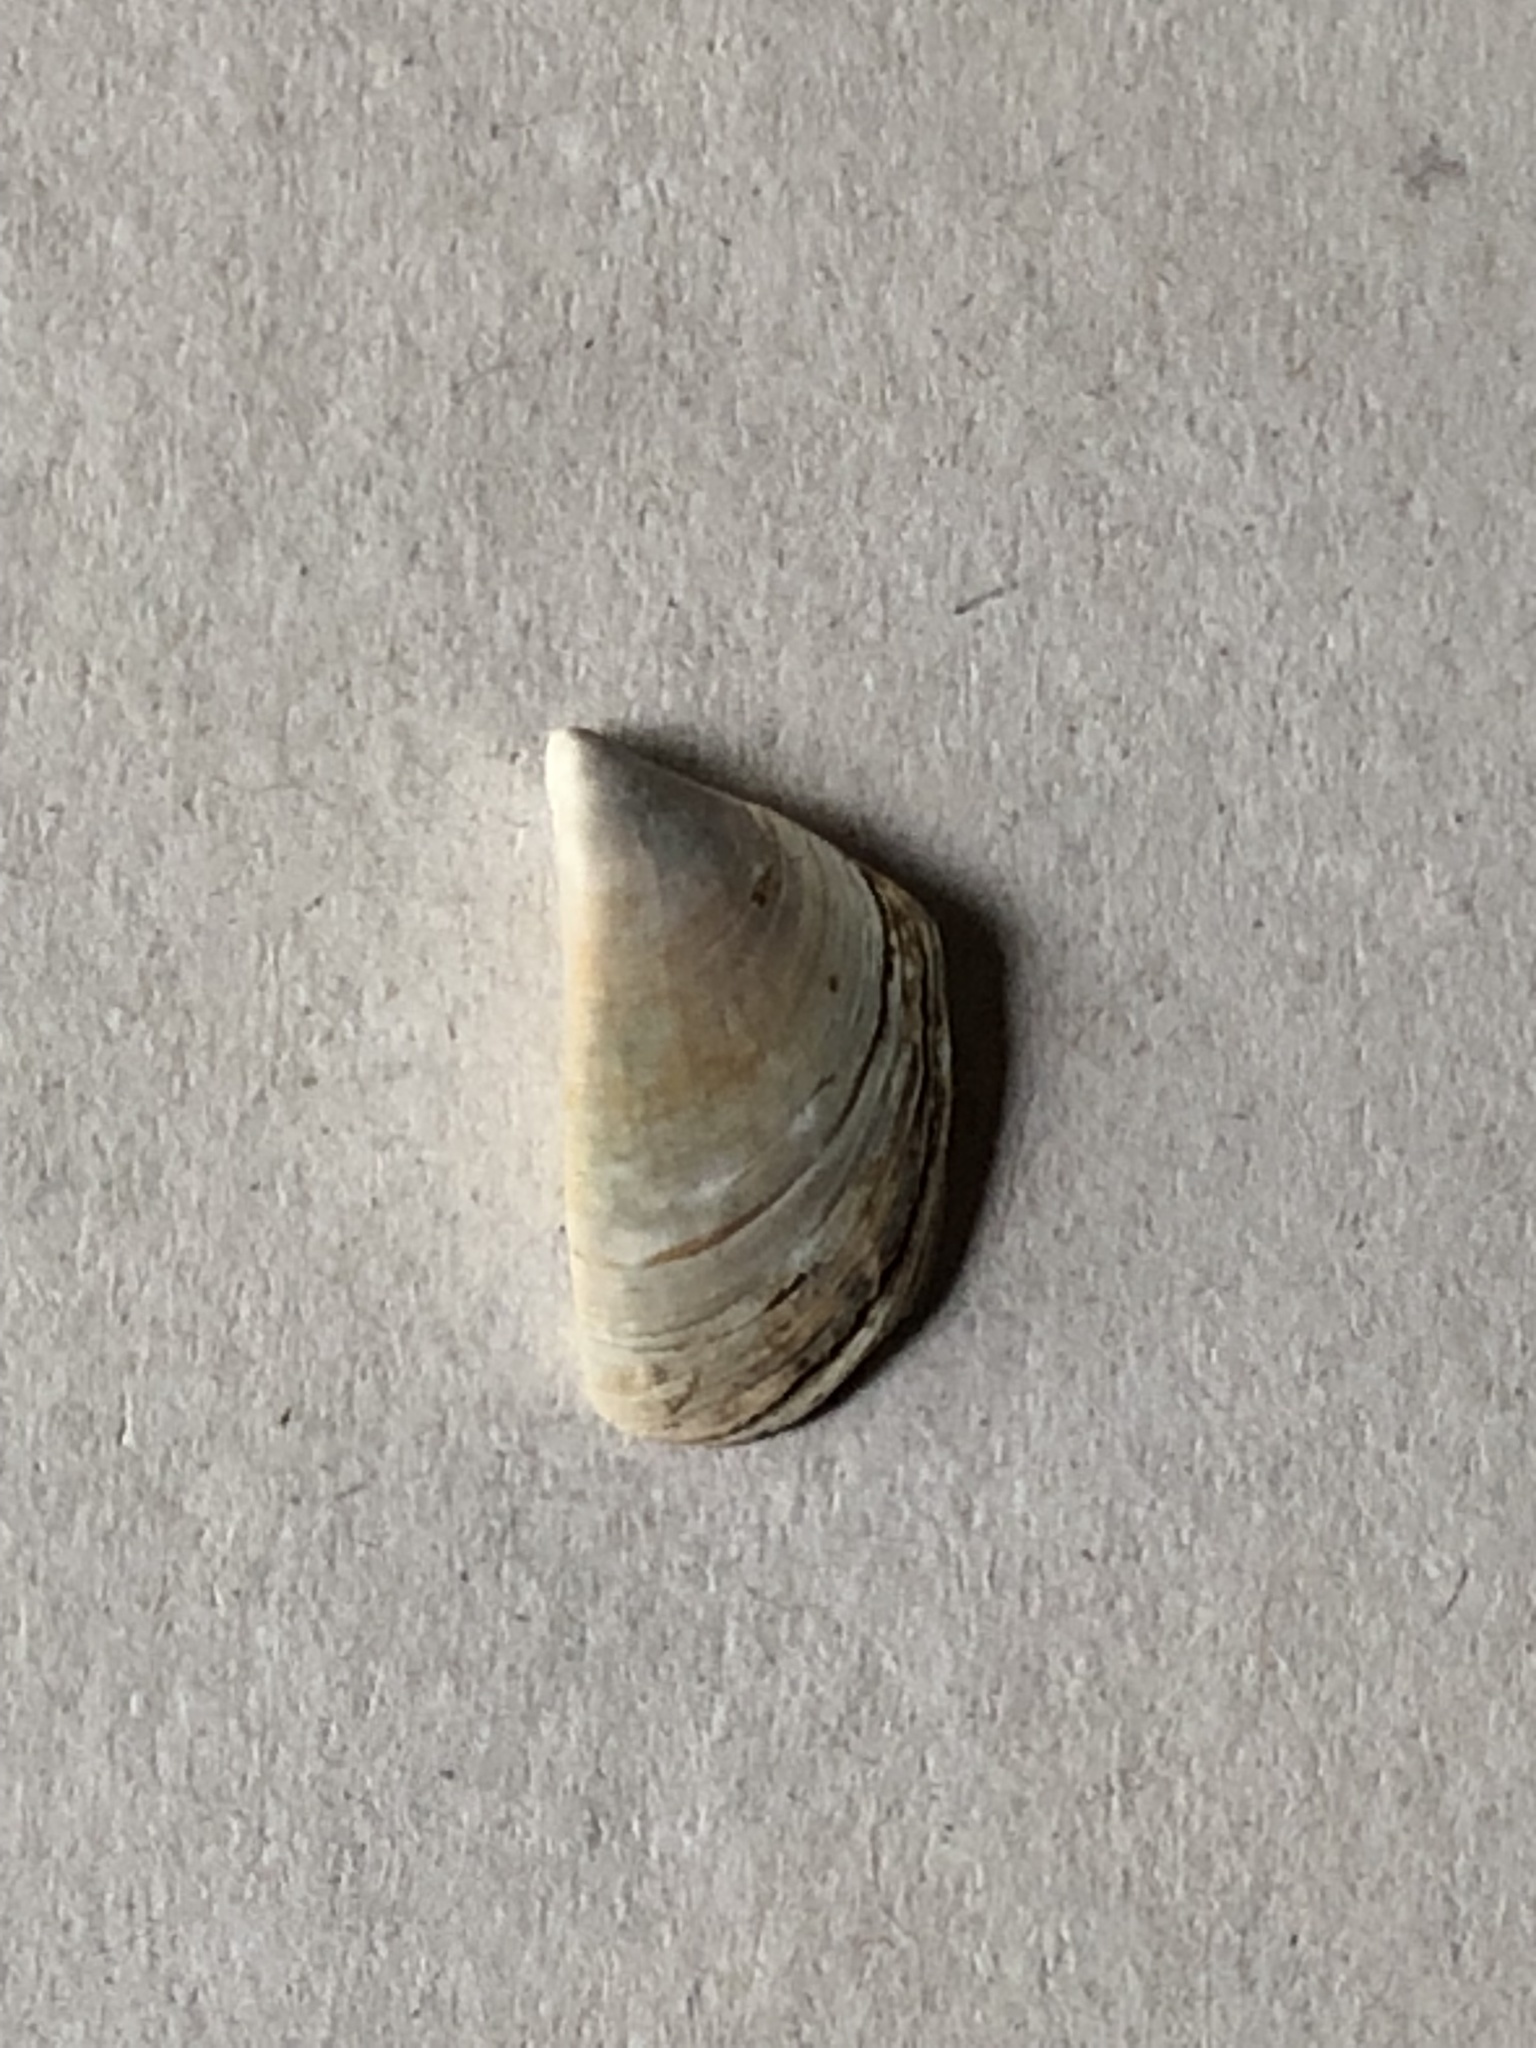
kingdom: Animalia
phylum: Mollusca
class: Bivalvia
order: Myida
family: Dreissenidae
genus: Dreissena
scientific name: Dreissena polymorpha
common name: Zebra mussel
